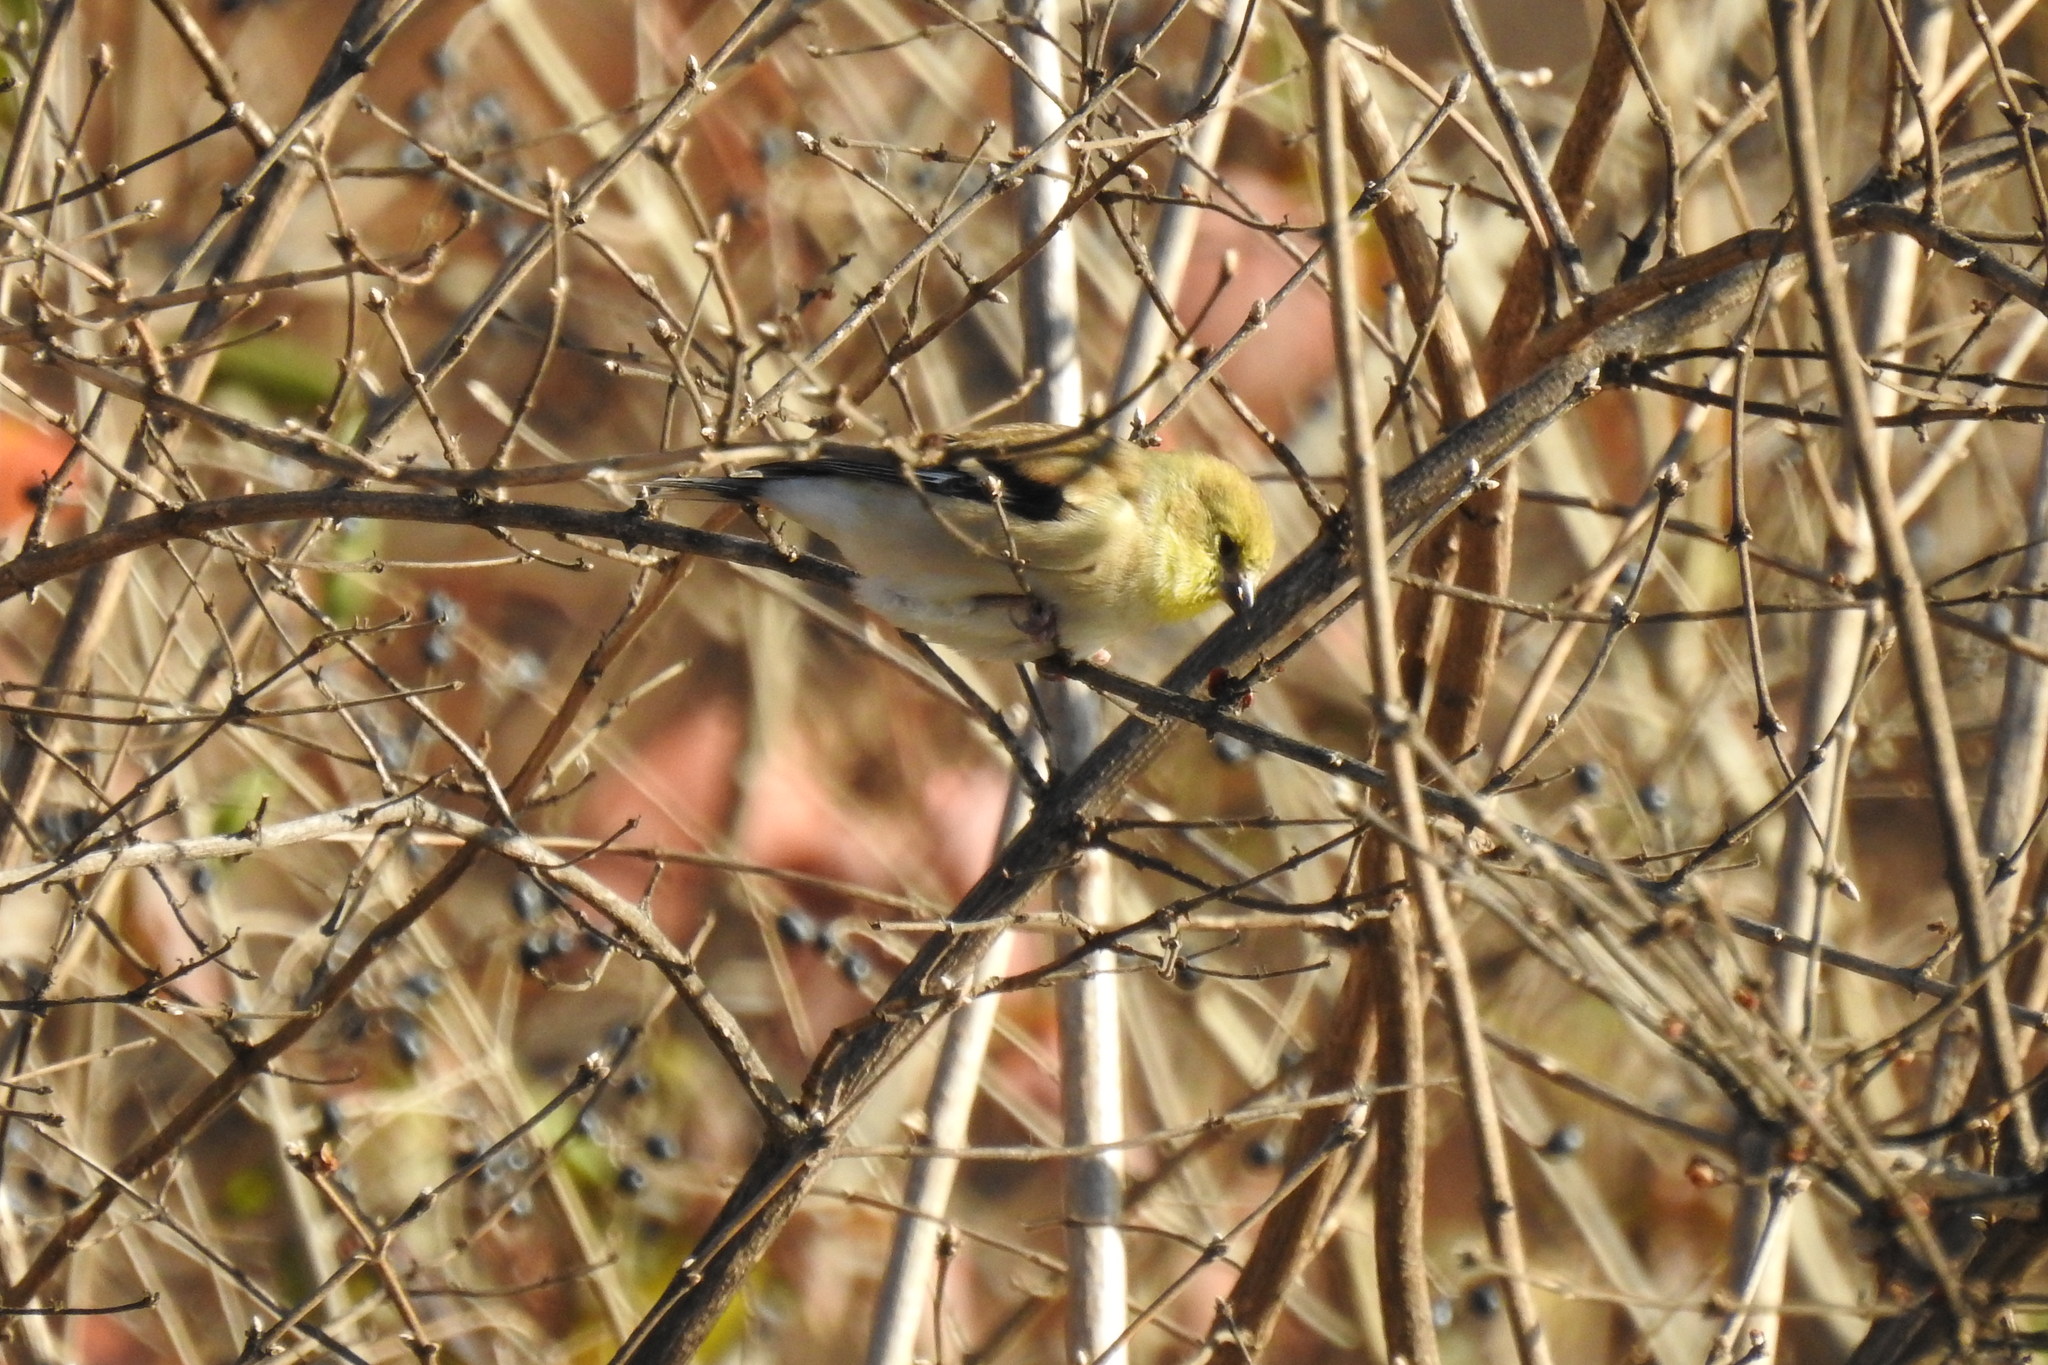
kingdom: Animalia
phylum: Chordata
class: Aves
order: Passeriformes
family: Fringillidae
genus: Spinus
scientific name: Spinus tristis
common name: American goldfinch
